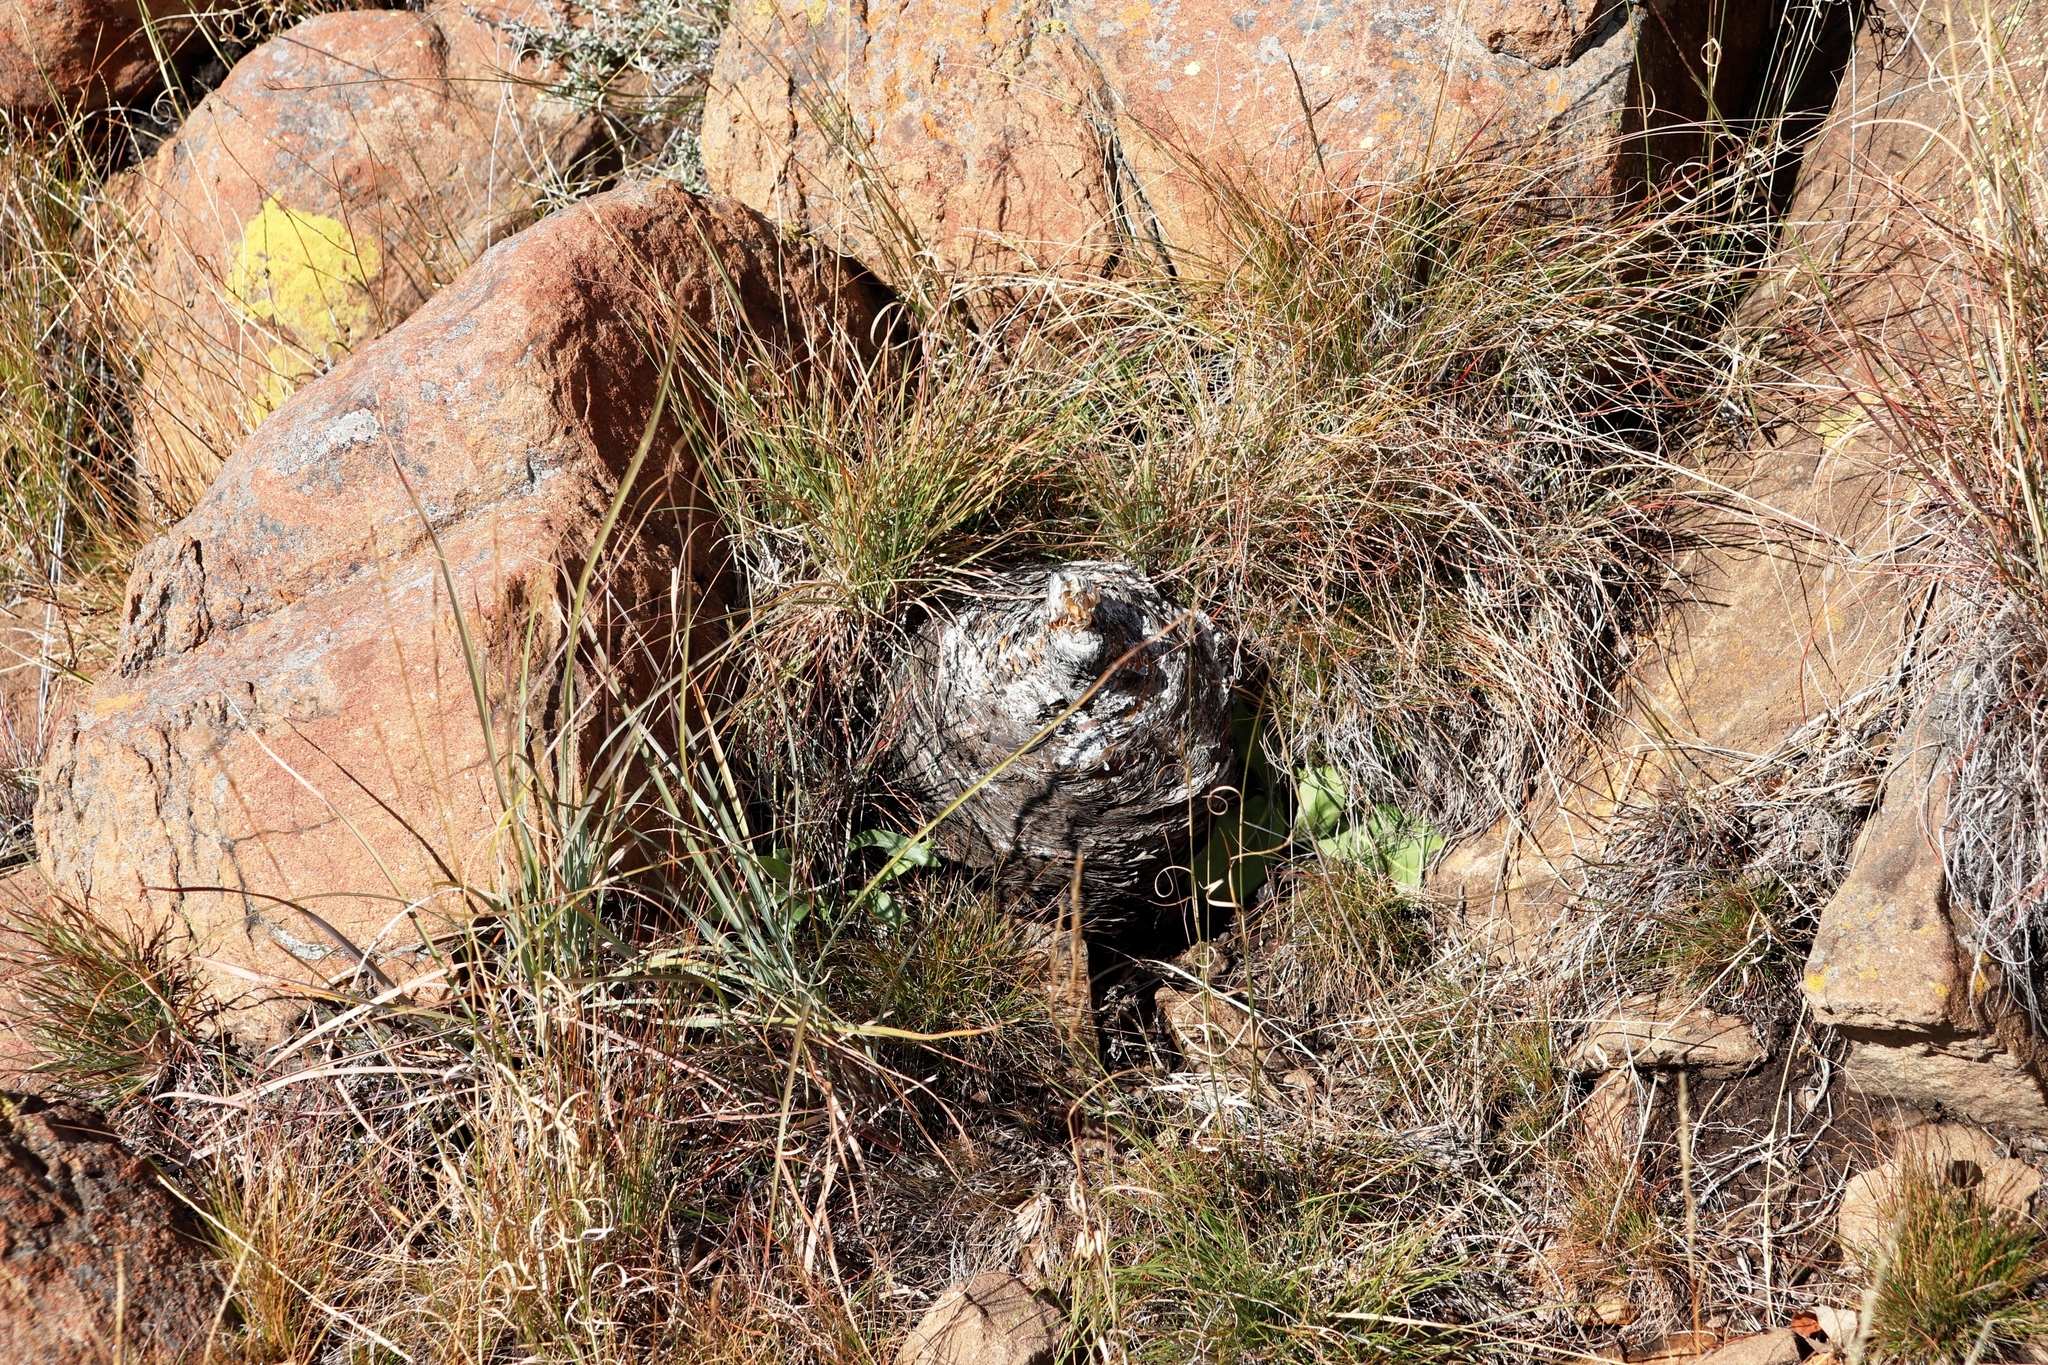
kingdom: Plantae
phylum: Tracheophyta
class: Liliopsida
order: Asparagales
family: Amaryllidaceae
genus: Boophone
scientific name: Boophone disticha
